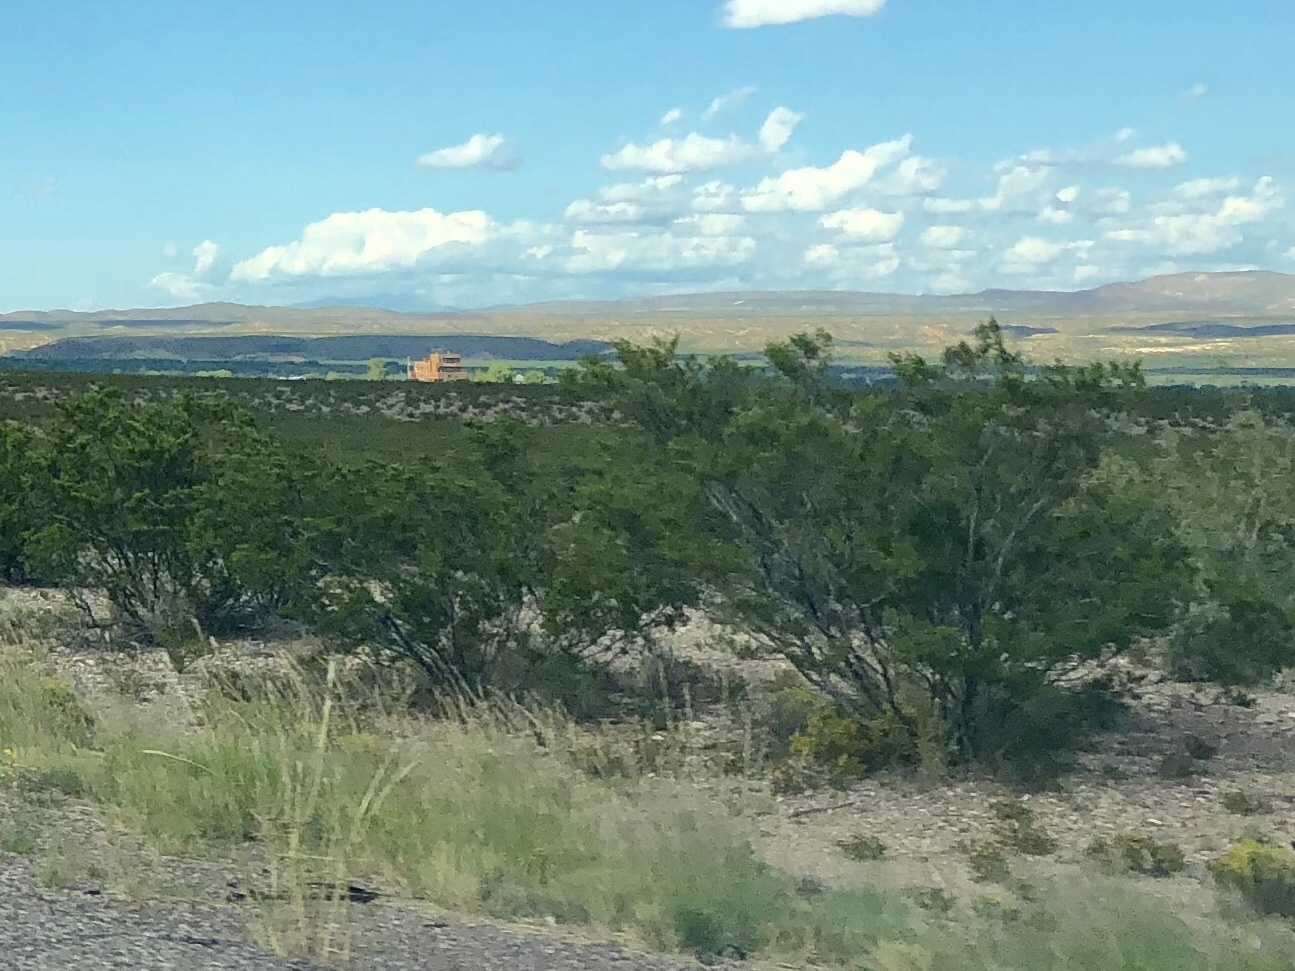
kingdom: Plantae
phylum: Tracheophyta
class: Magnoliopsida
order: Zygophyllales
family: Zygophyllaceae
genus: Larrea
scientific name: Larrea tridentata
